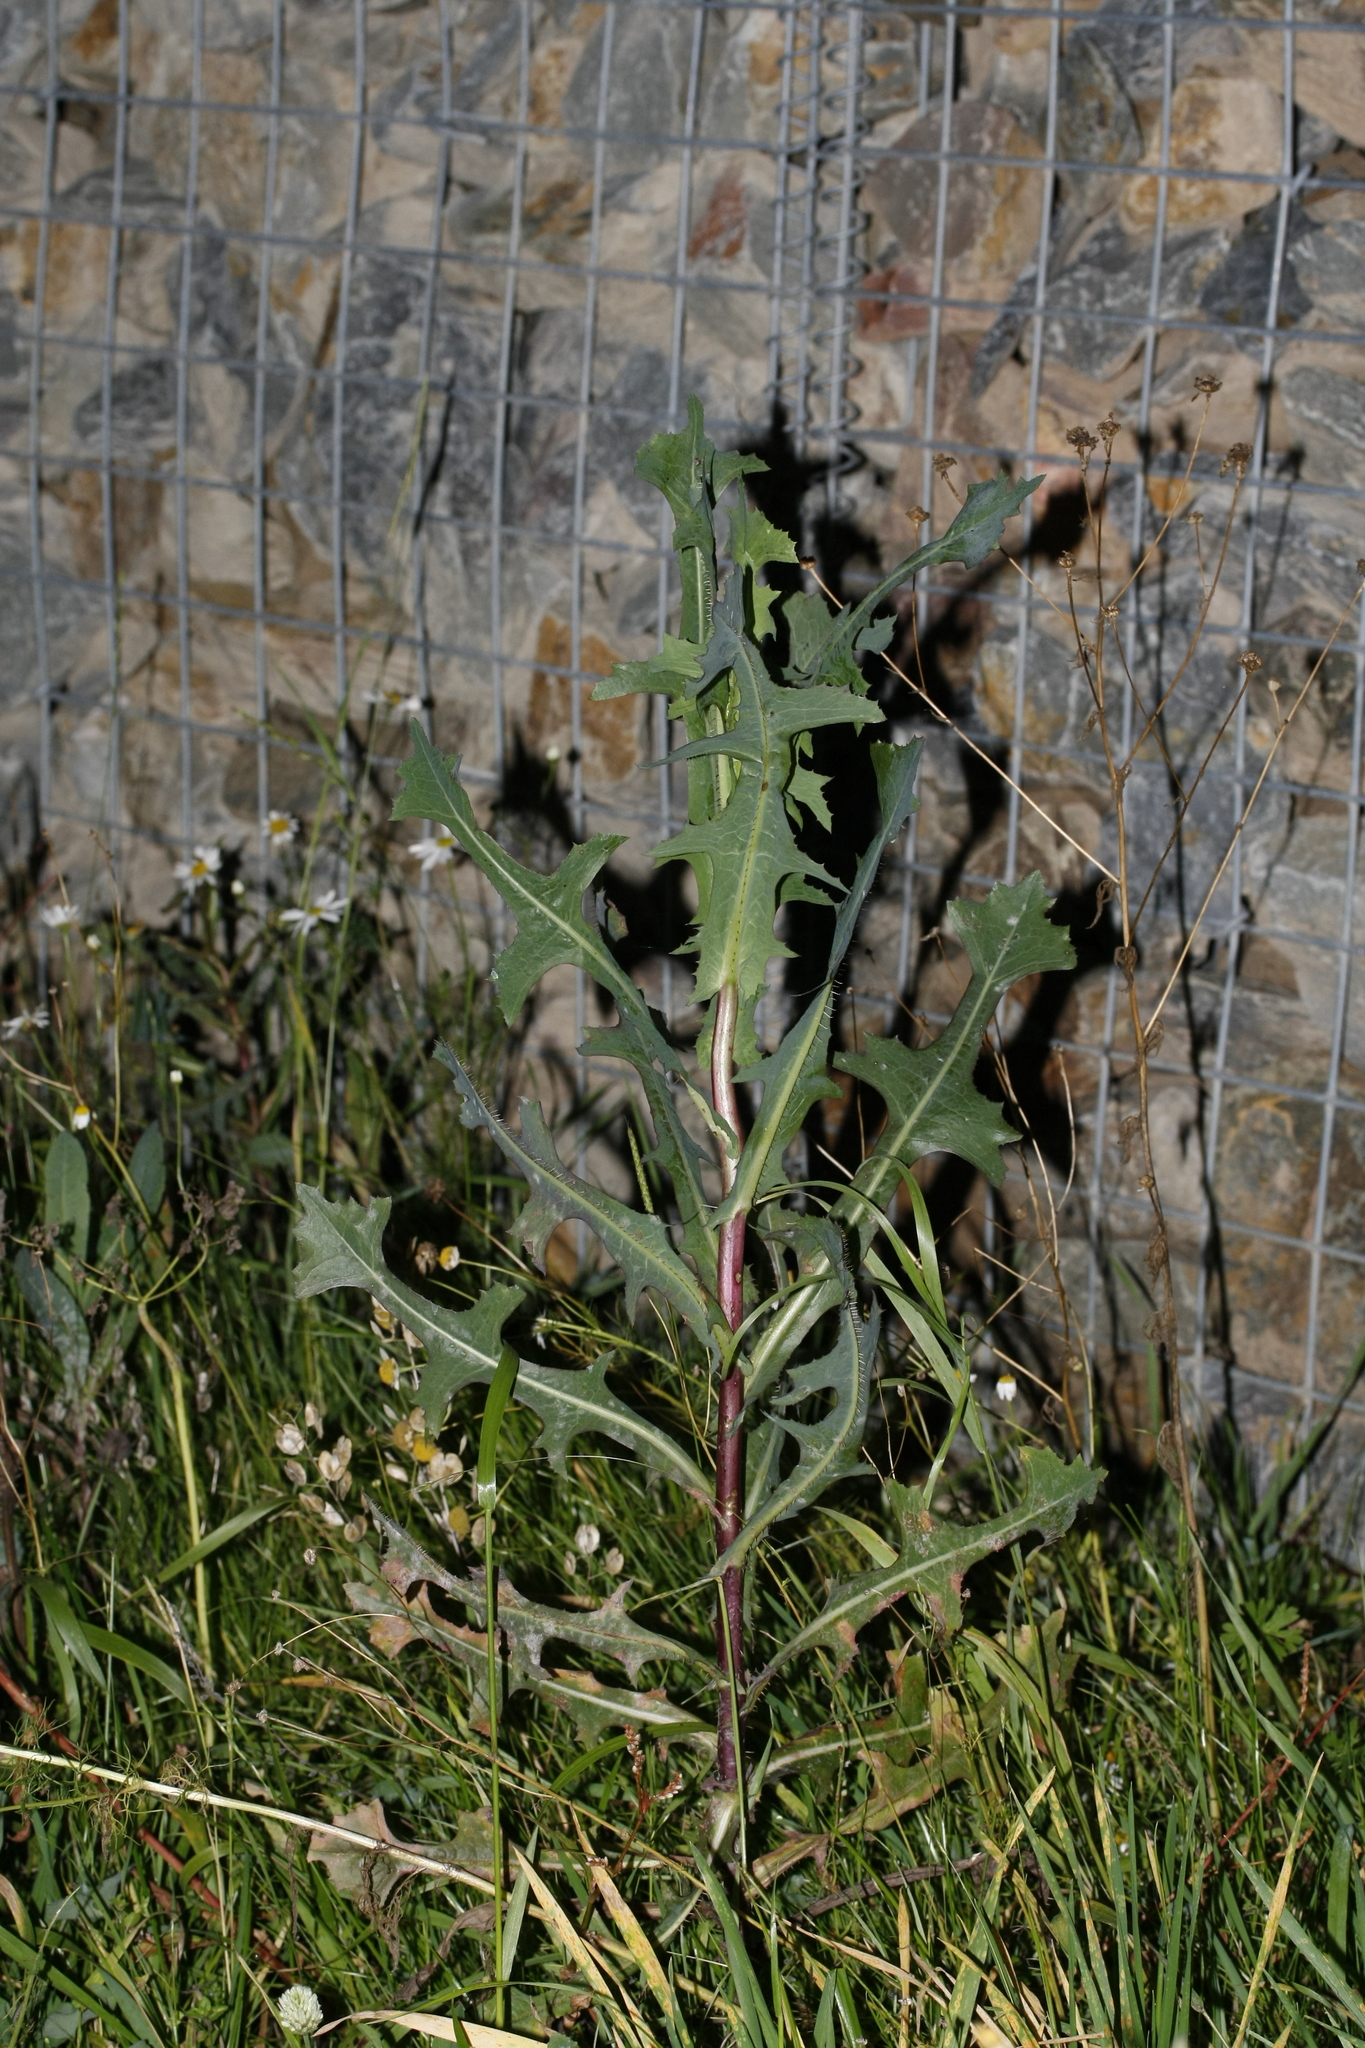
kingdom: Plantae
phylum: Tracheophyta
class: Magnoliopsida
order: Asterales
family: Asteraceae
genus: Lactuca
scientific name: Lactuca serriola
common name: Prickly lettuce
